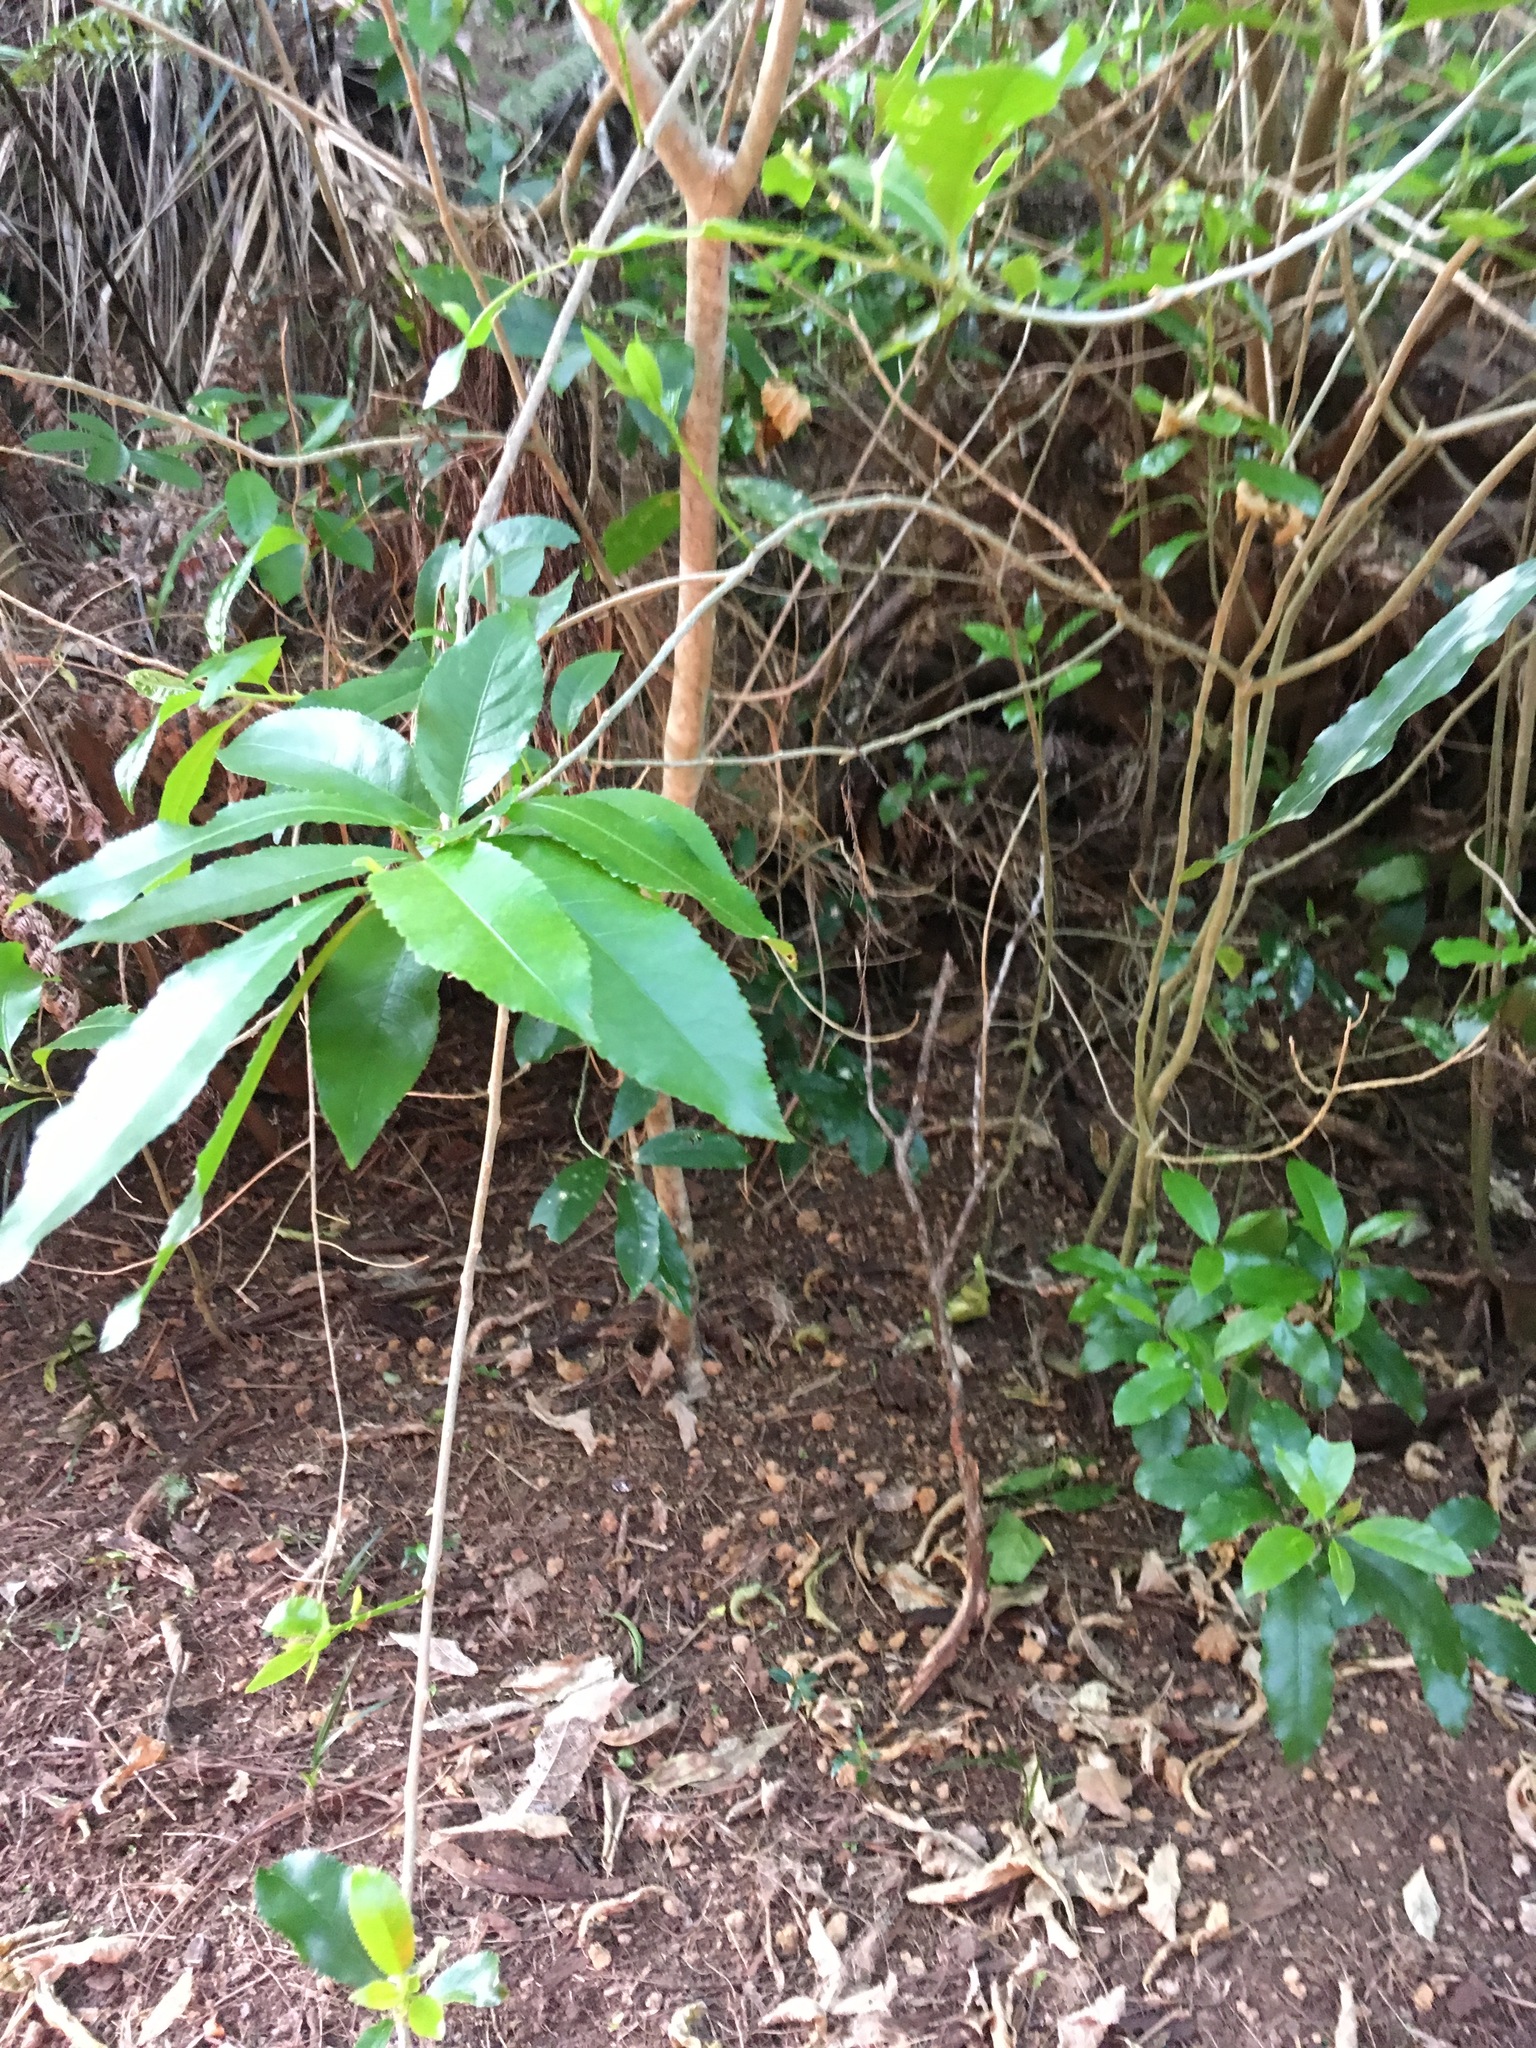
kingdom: Plantae
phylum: Tracheophyta
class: Magnoliopsida
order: Malpighiales
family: Violaceae
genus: Melicytus
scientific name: Melicytus ramiflorus
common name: Mahoe
